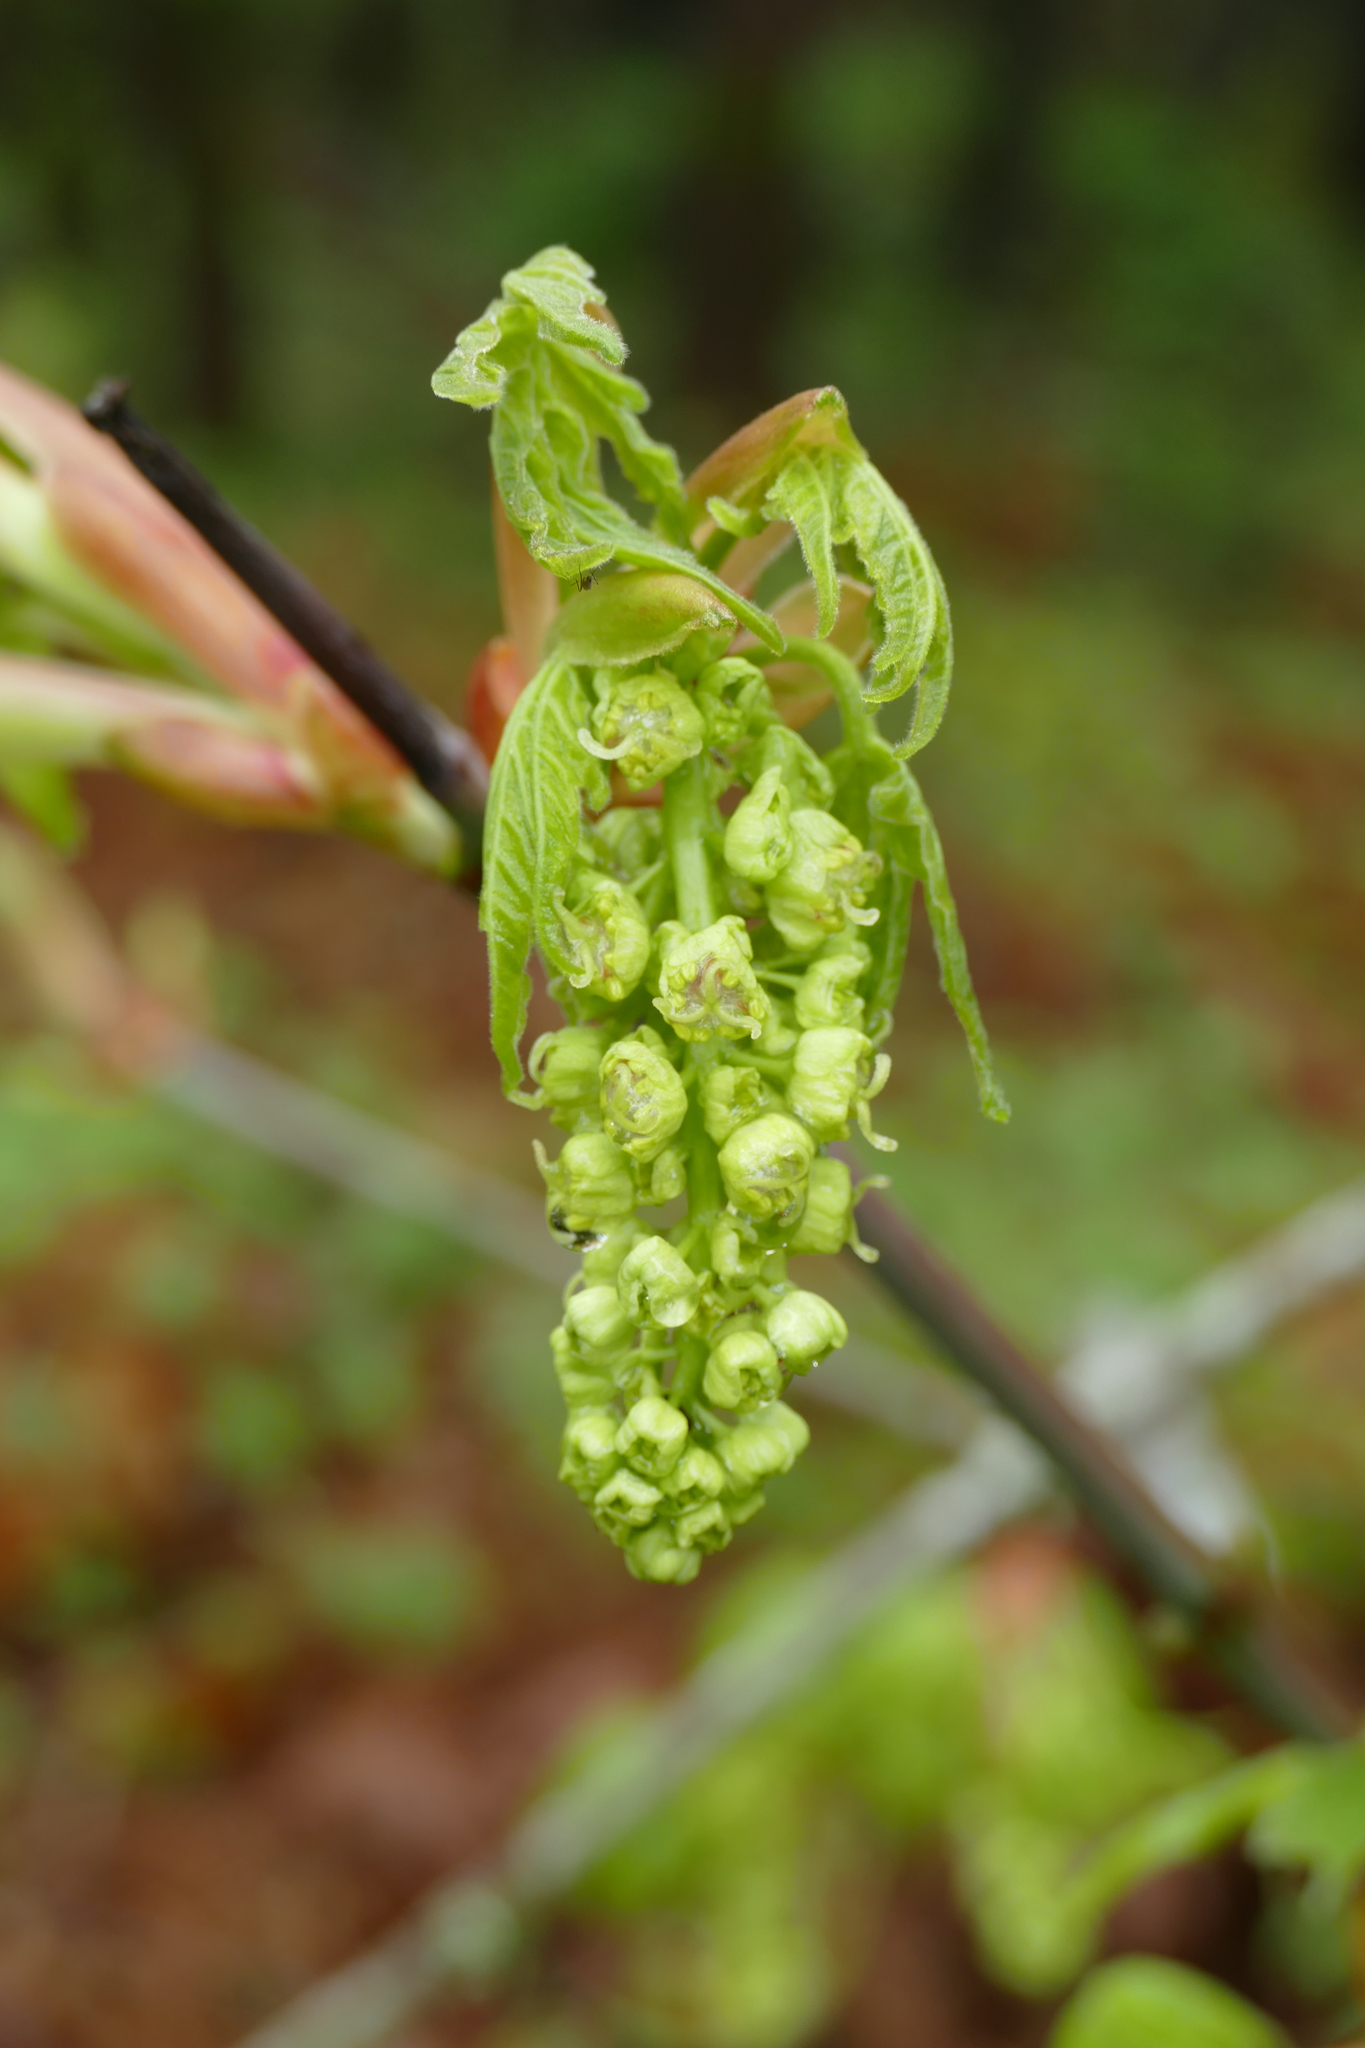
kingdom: Plantae
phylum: Tracheophyta
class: Magnoliopsida
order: Sapindales
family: Sapindaceae
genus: Acer
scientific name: Acer macrophyllum
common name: Oregon maple
